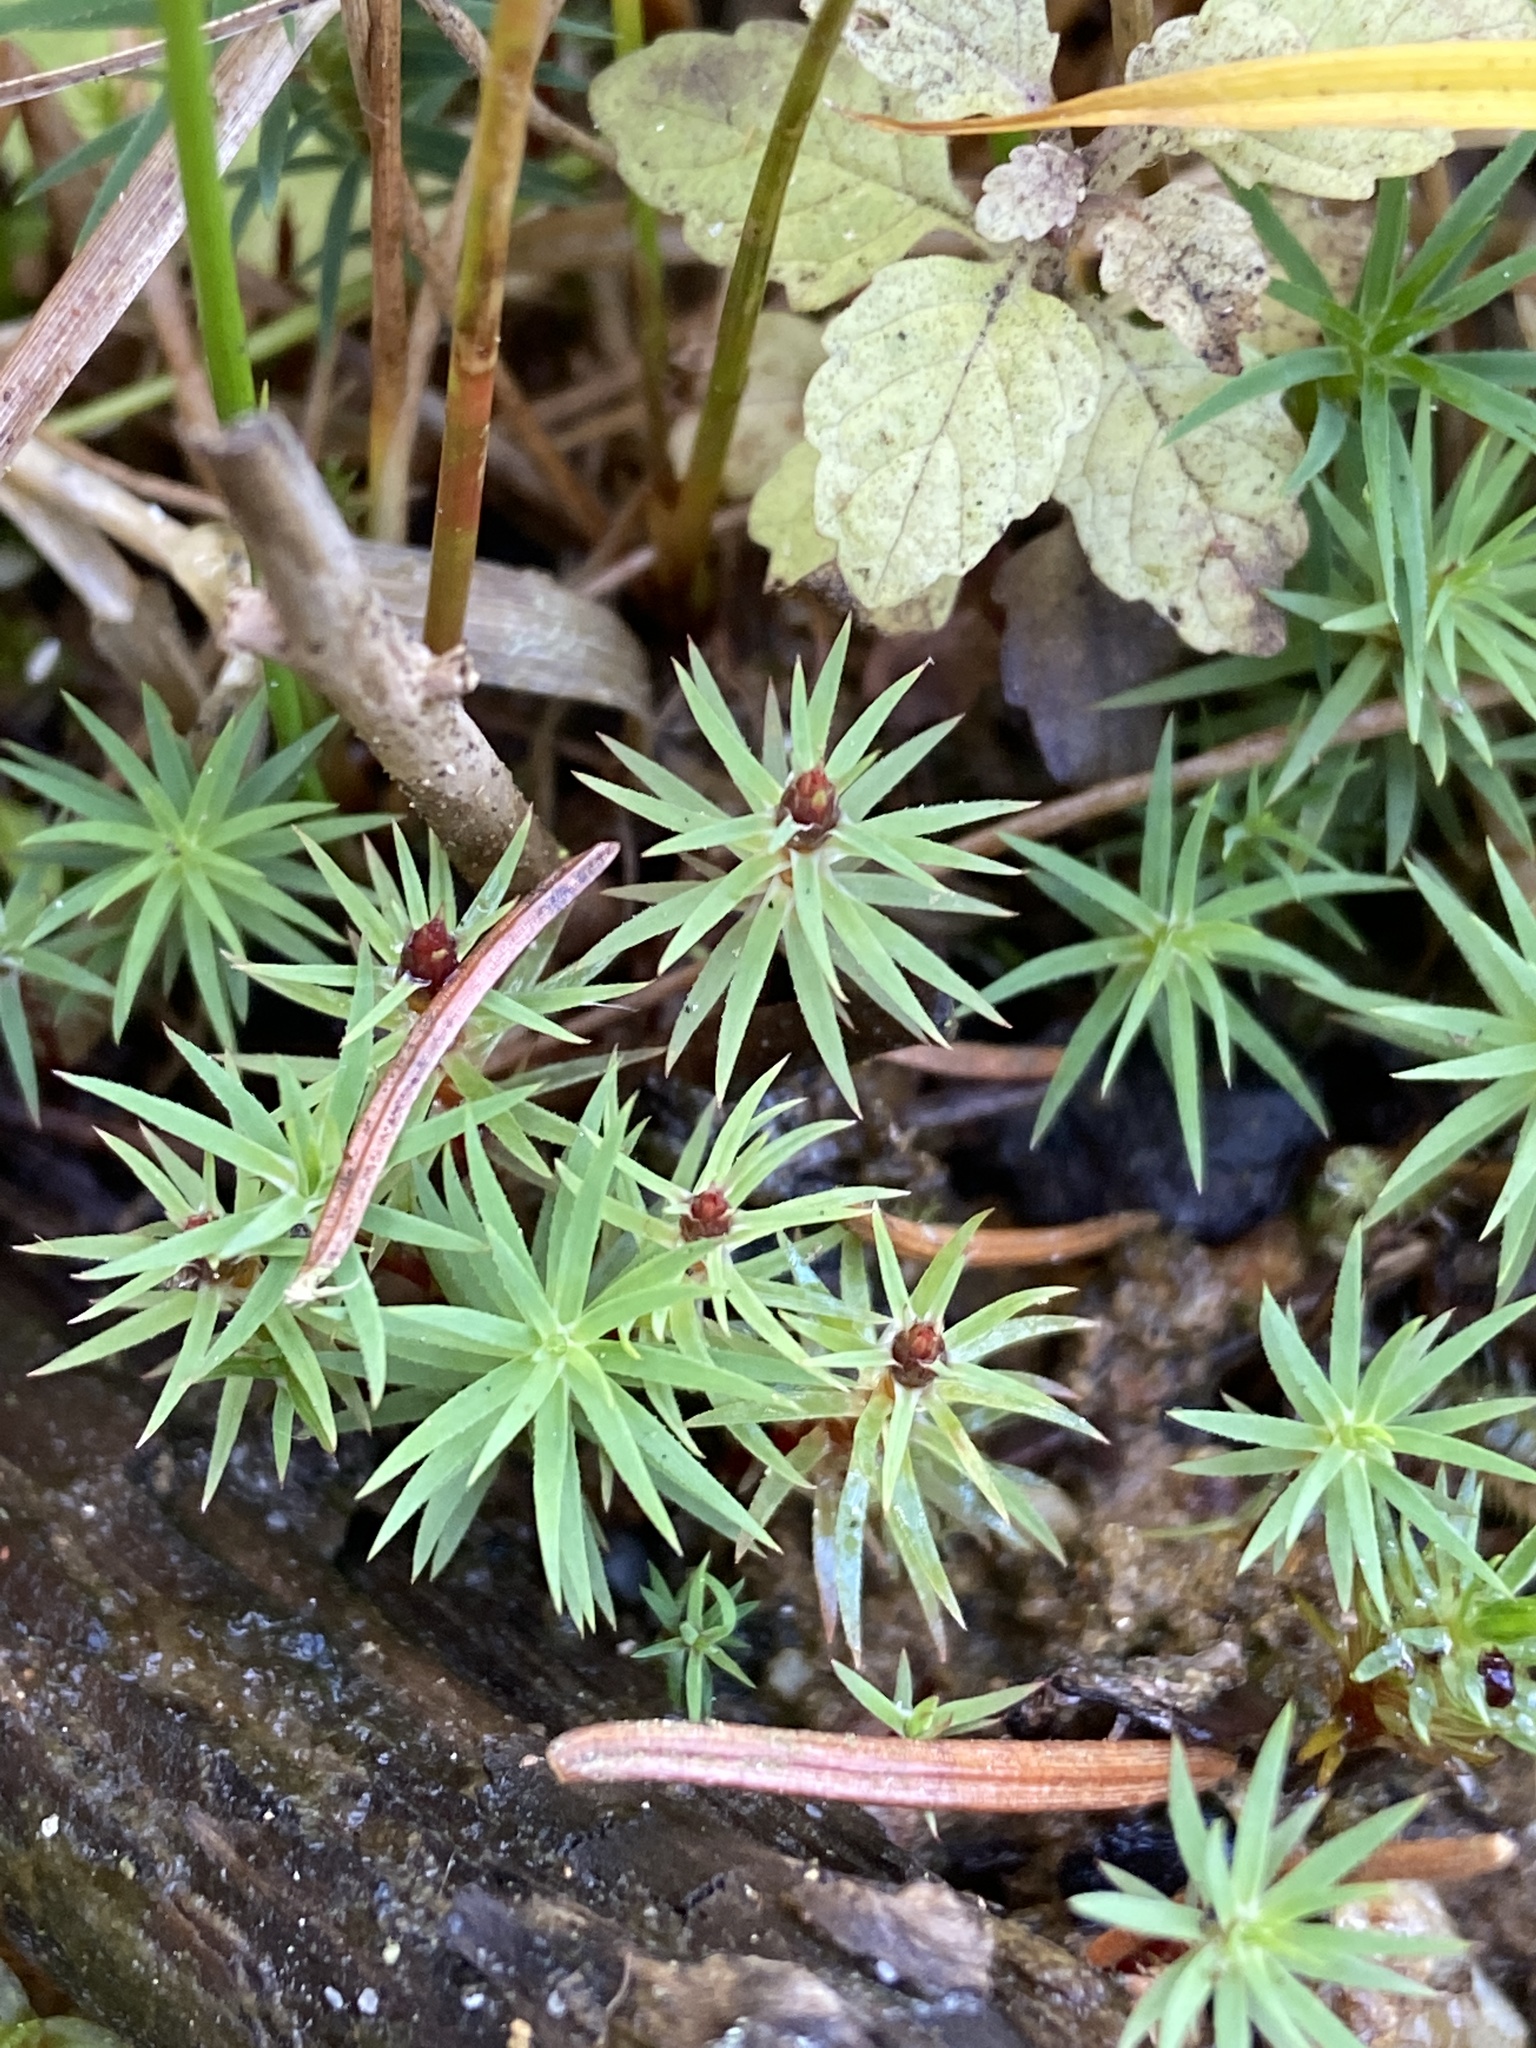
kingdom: Plantae
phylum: Bryophyta
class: Polytrichopsida
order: Polytrichales
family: Polytrichaceae
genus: Pogonatum
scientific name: Pogonatum urnigerum
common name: Urn hair moss
